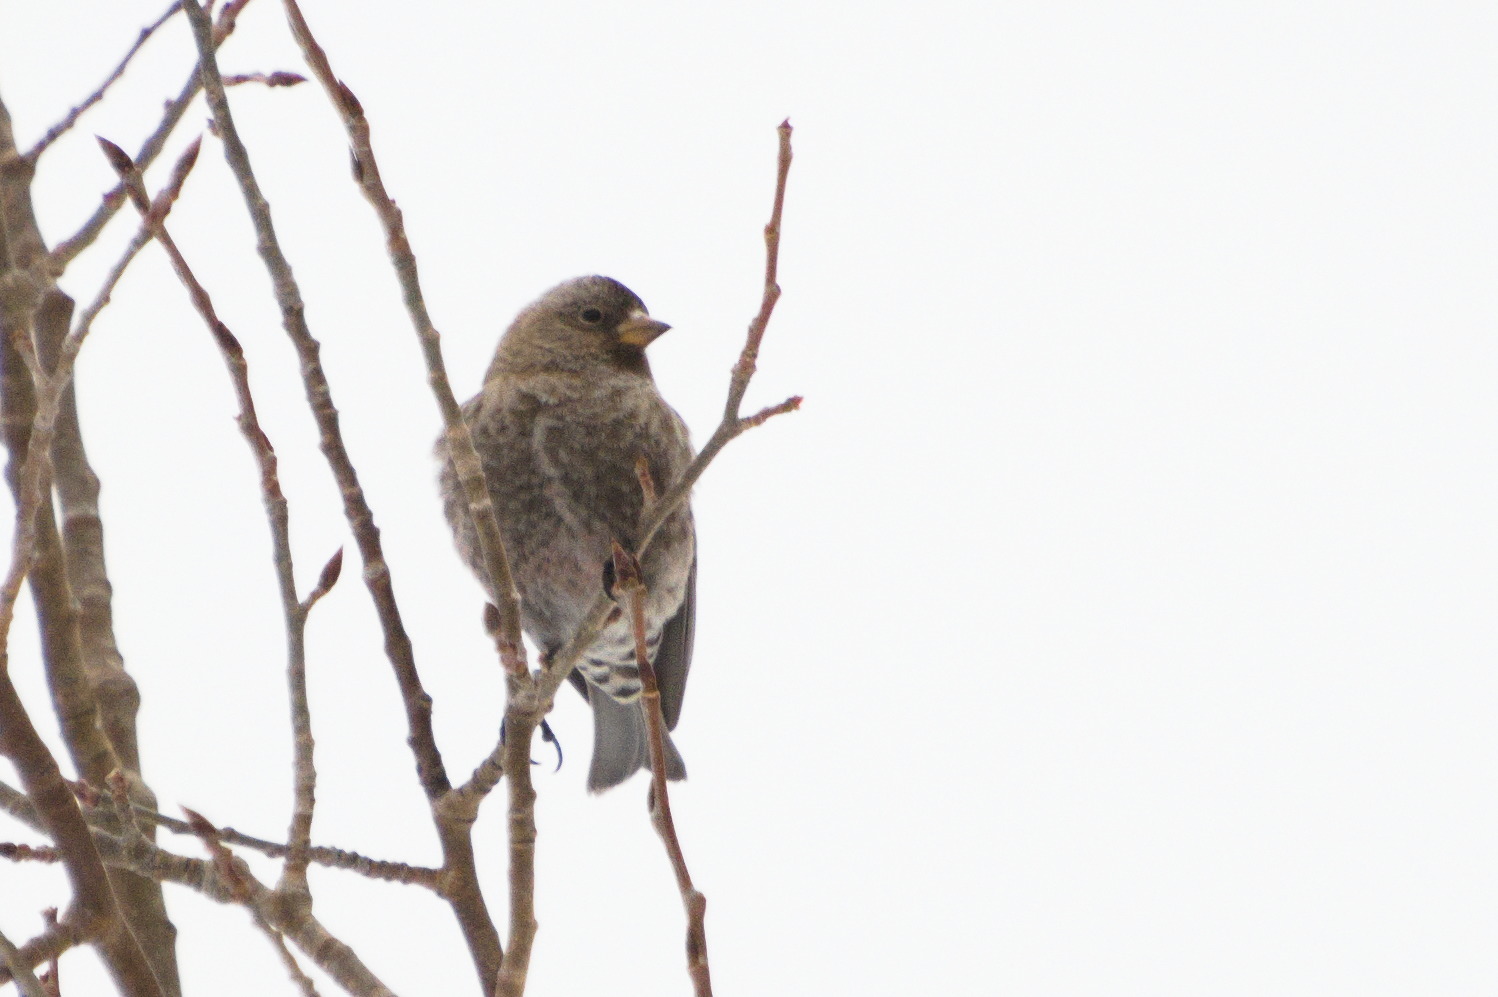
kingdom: Animalia
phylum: Chordata
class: Aves
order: Passeriformes
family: Fringillidae
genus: Leucosticte
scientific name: Leucosticte australis
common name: Brown-capped rosy-finch
